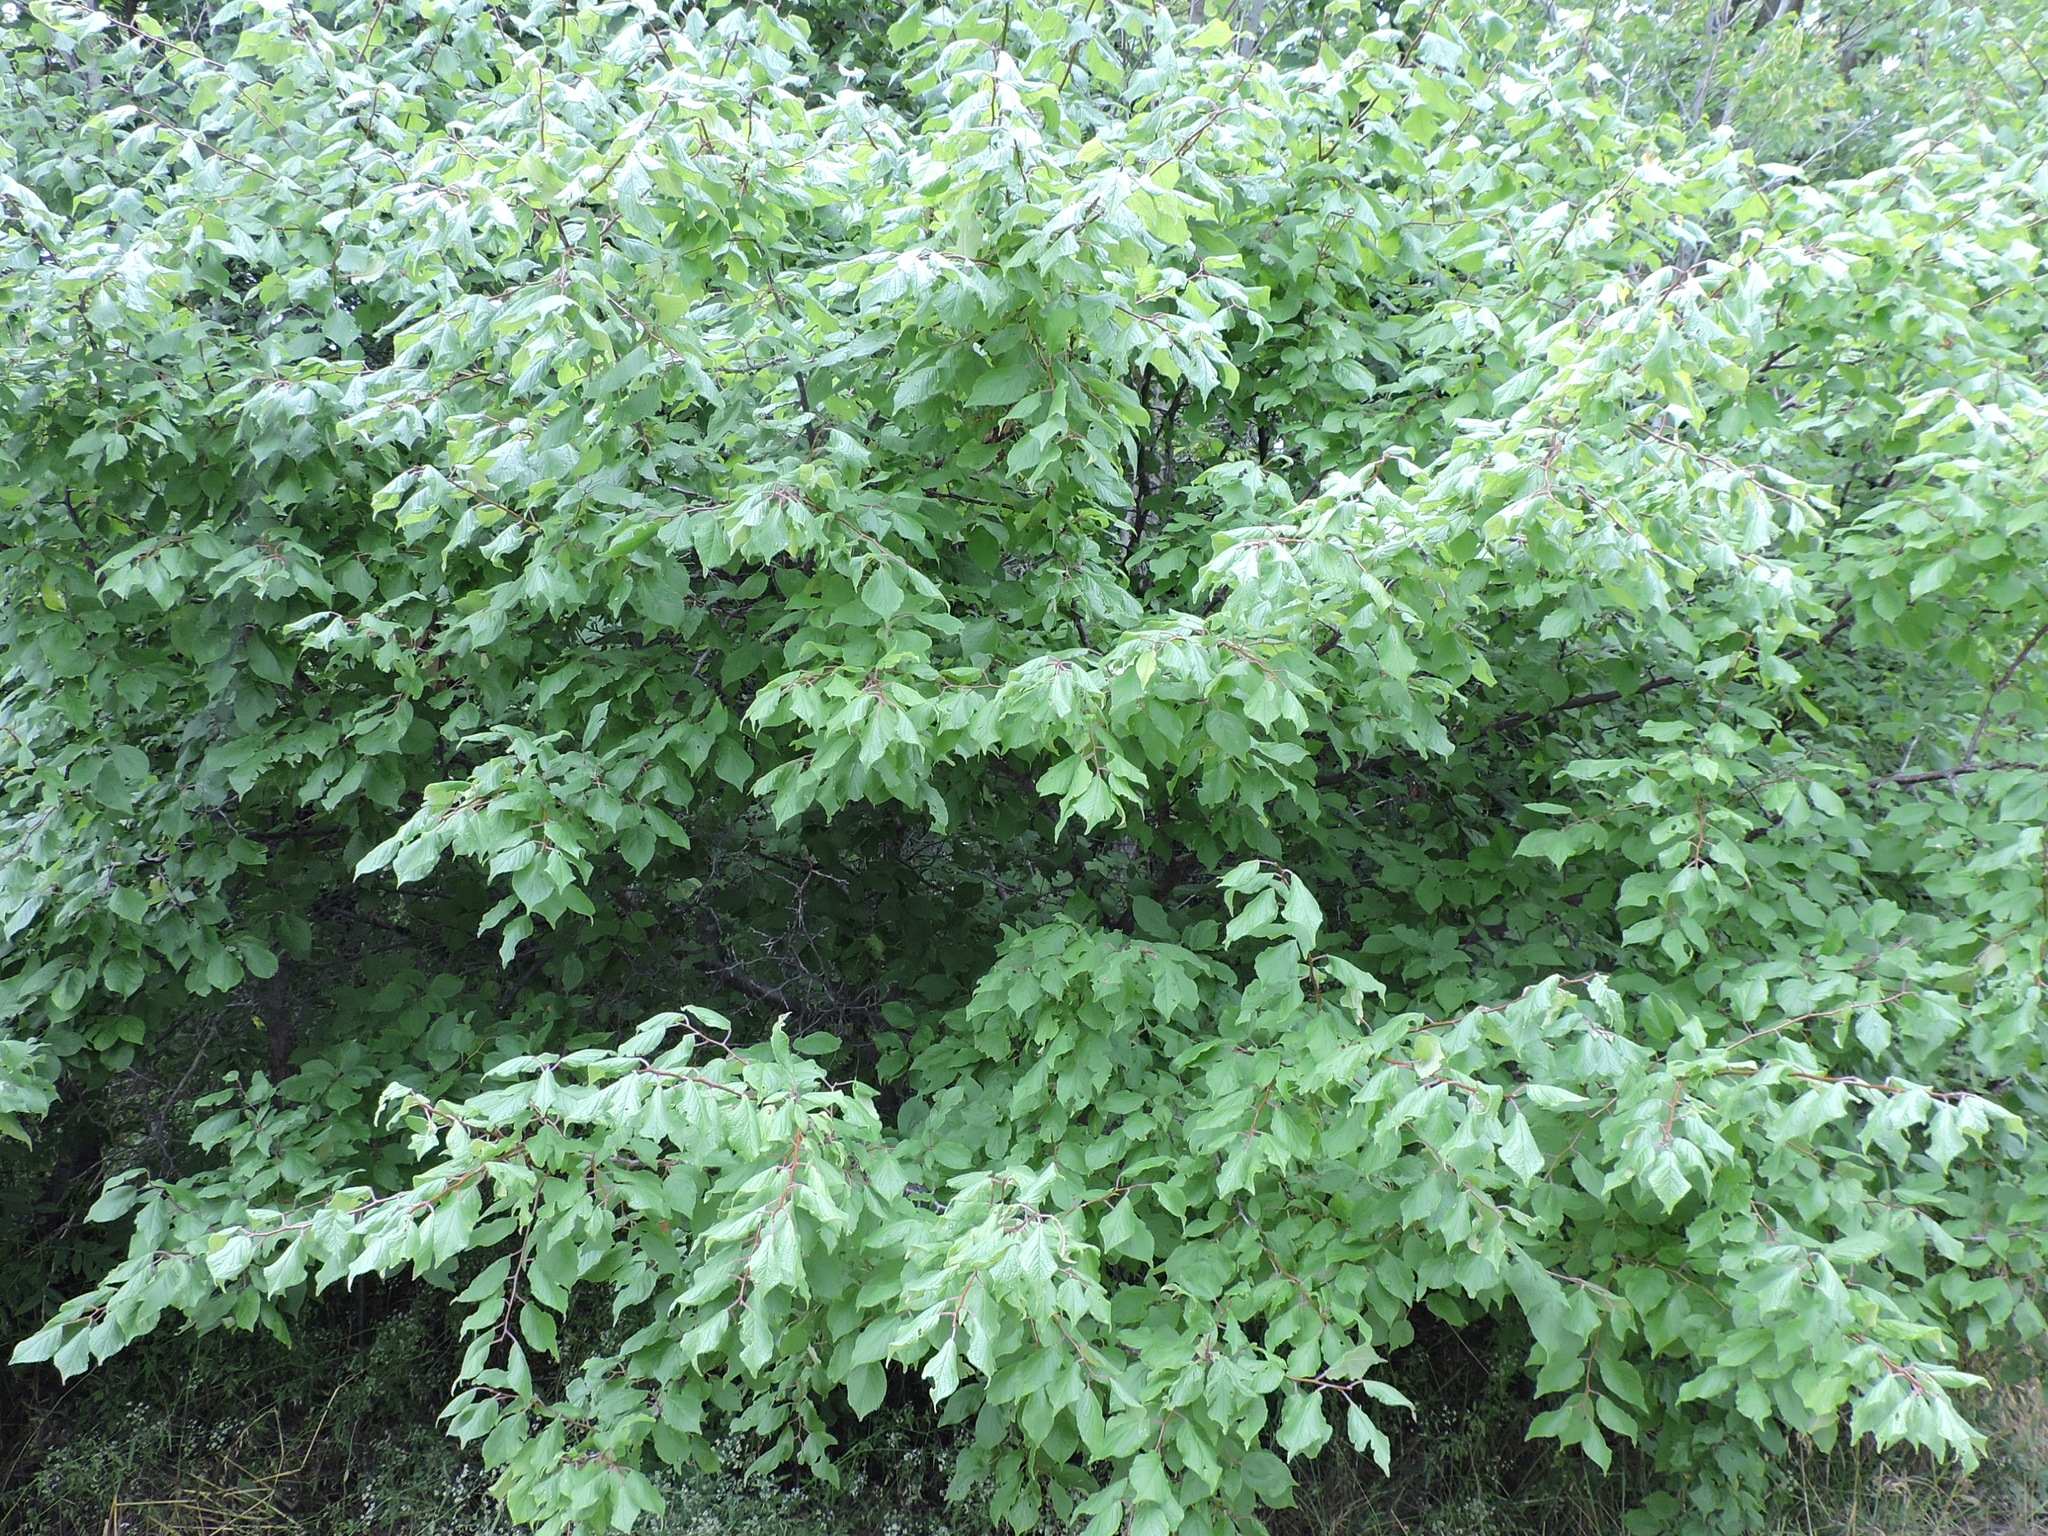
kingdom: Plantae
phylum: Tracheophyta
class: Magnoliopsida
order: Rosales
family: Rosaceae
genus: Prunus
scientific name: Prunus mexicana
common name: Mexican plum
